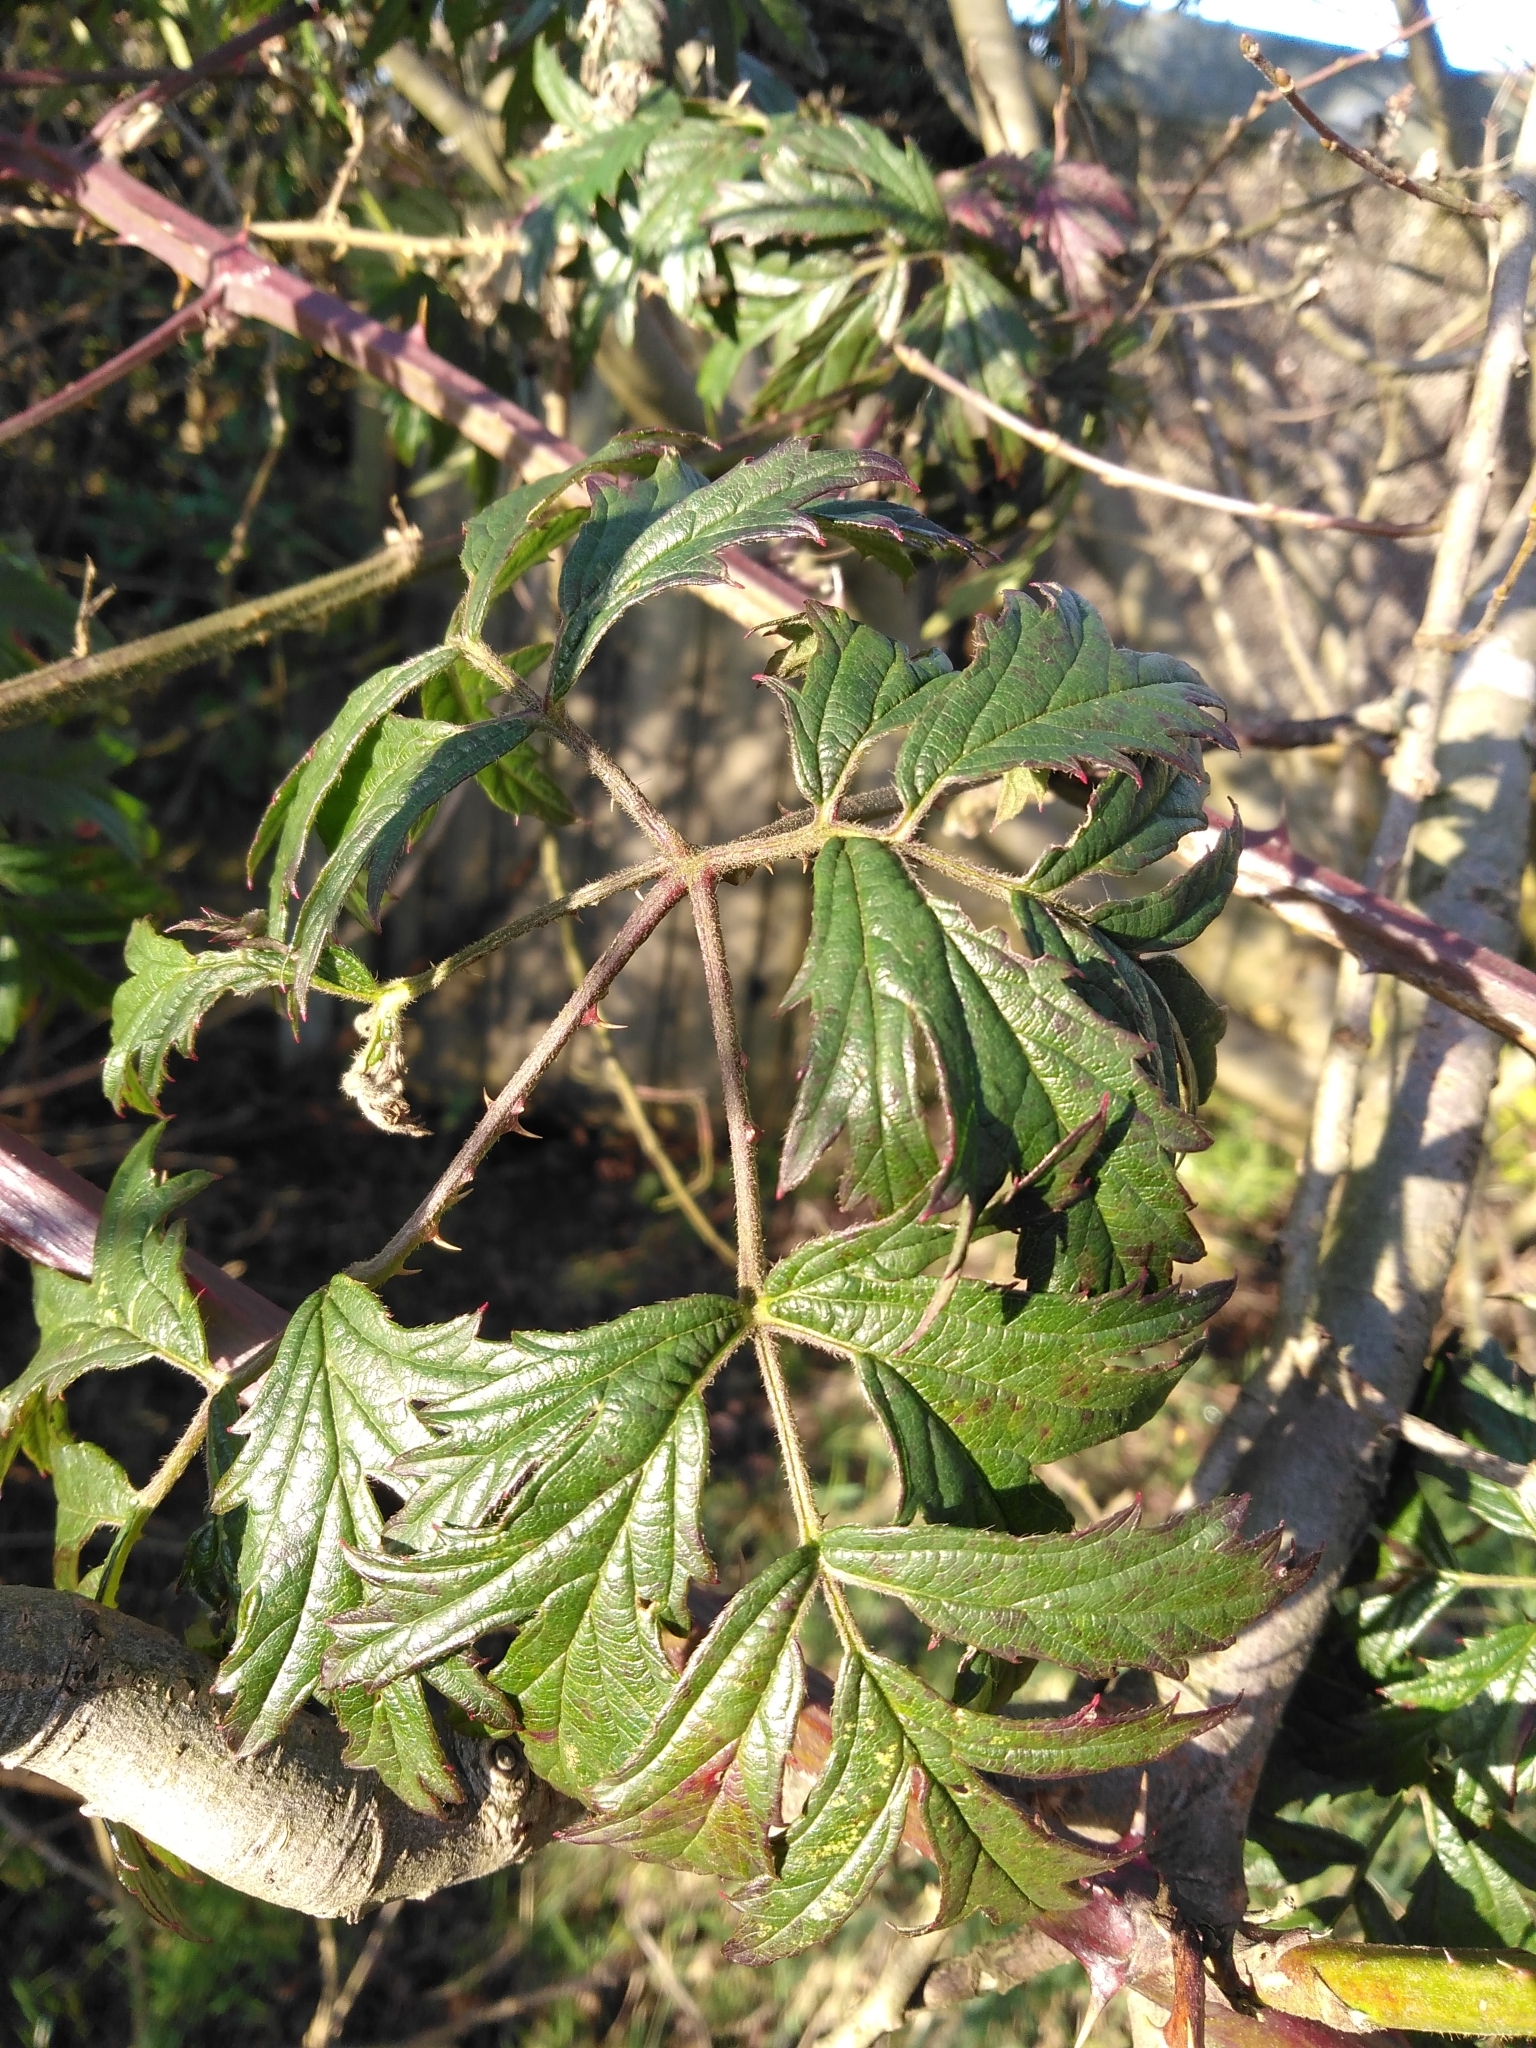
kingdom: Plantae
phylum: Tracheophyta
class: Magnoliopsida
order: Rosales
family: Rosaceae
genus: Rubus
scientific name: Rubus laciniatus
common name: Evergreen blackberry
